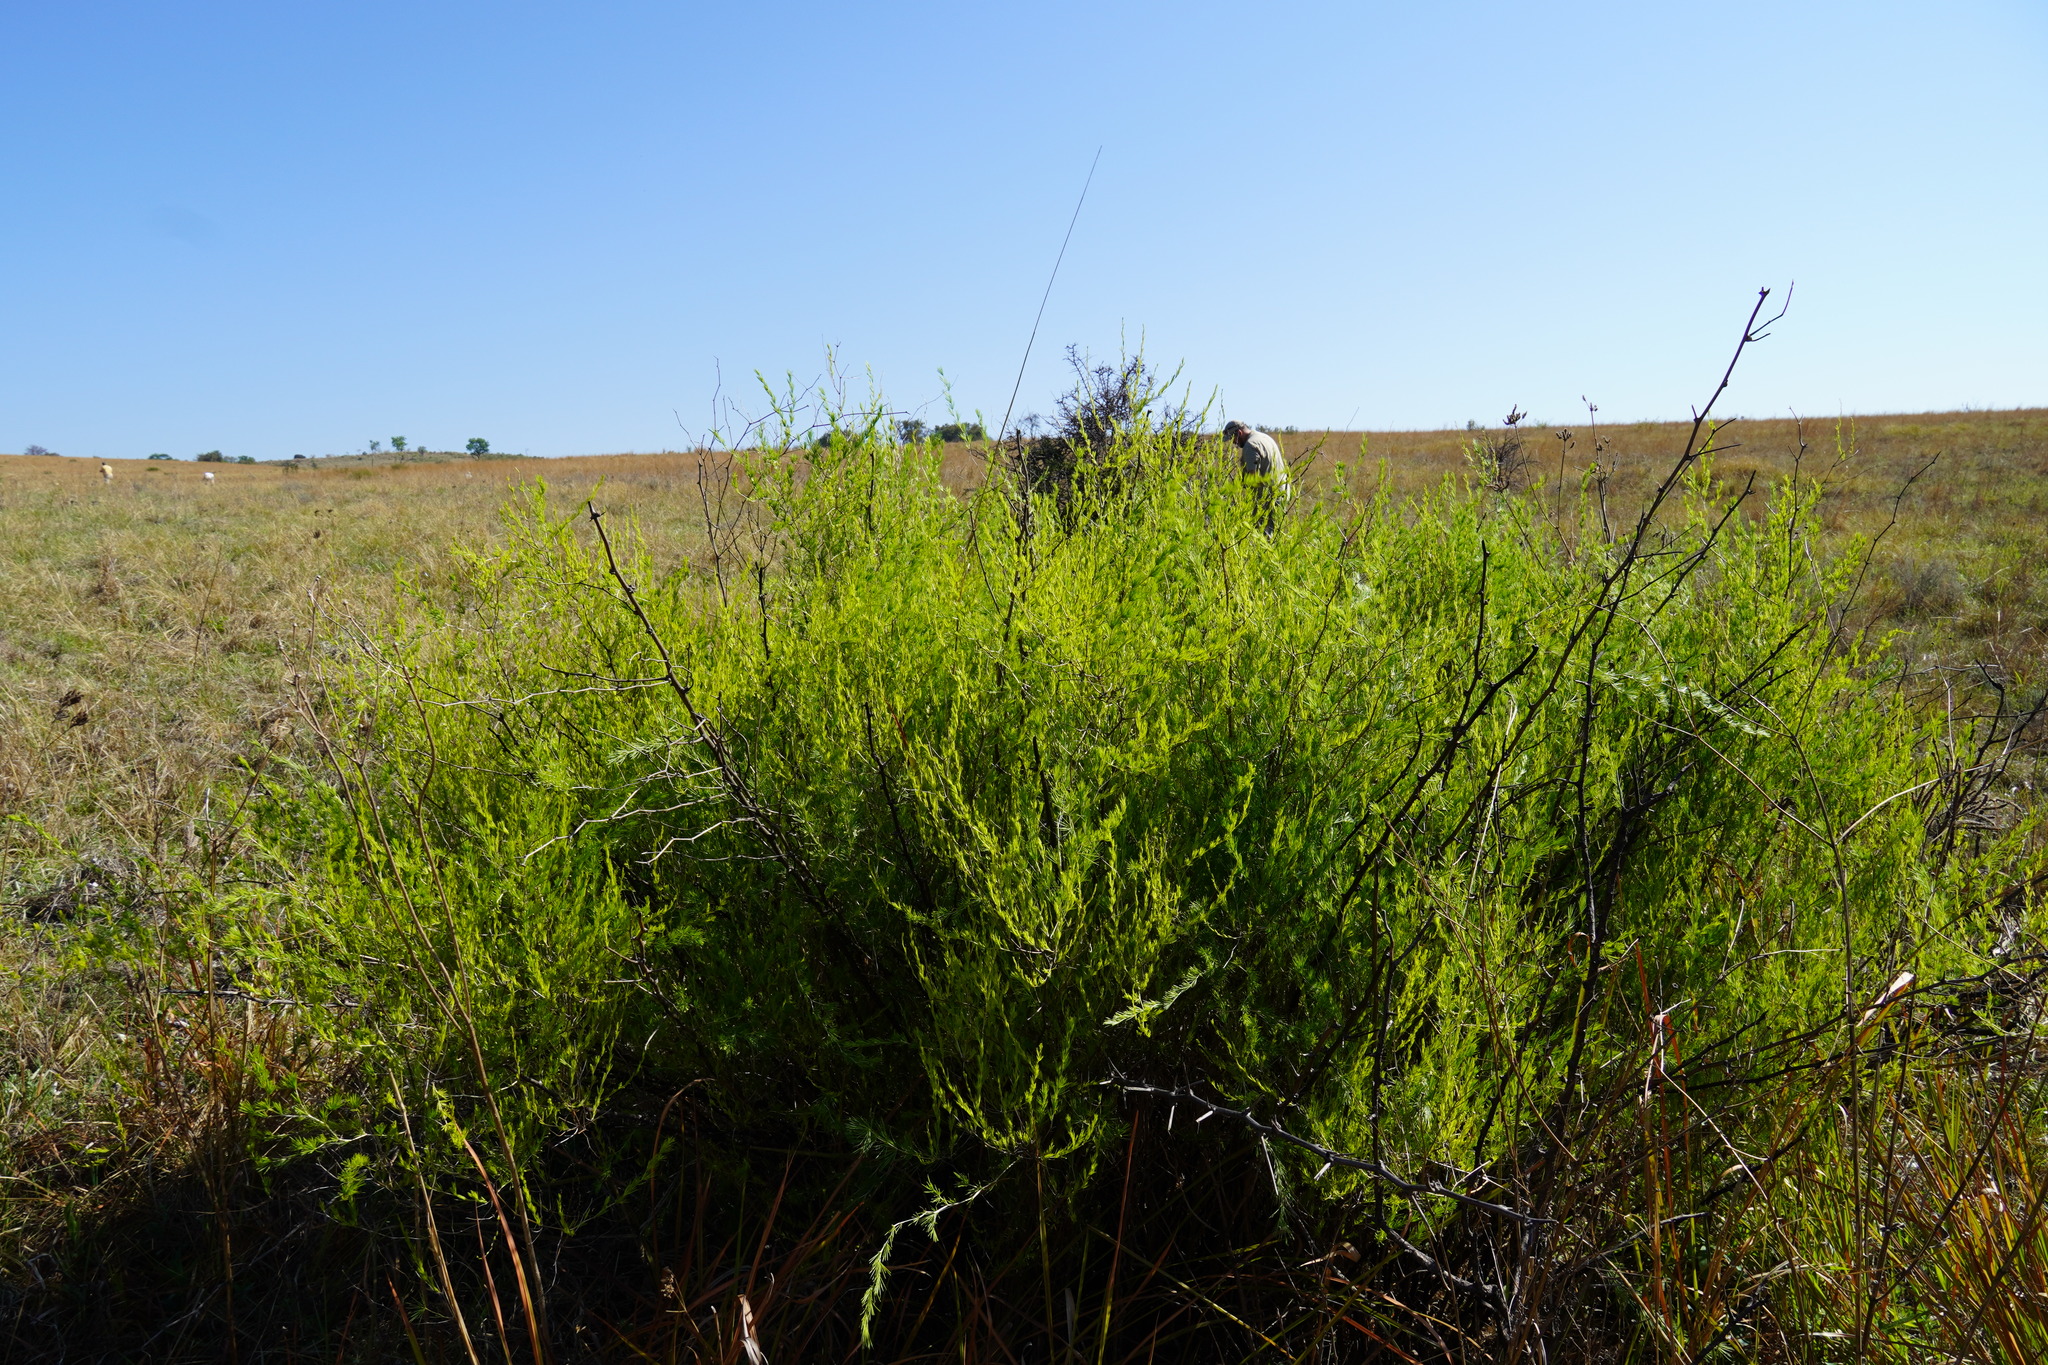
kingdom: Plantae
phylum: Tracheophyta
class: Liliopsida
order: Asparagales
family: Asparagaceae
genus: Asparagus
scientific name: Asparagus laricinus
